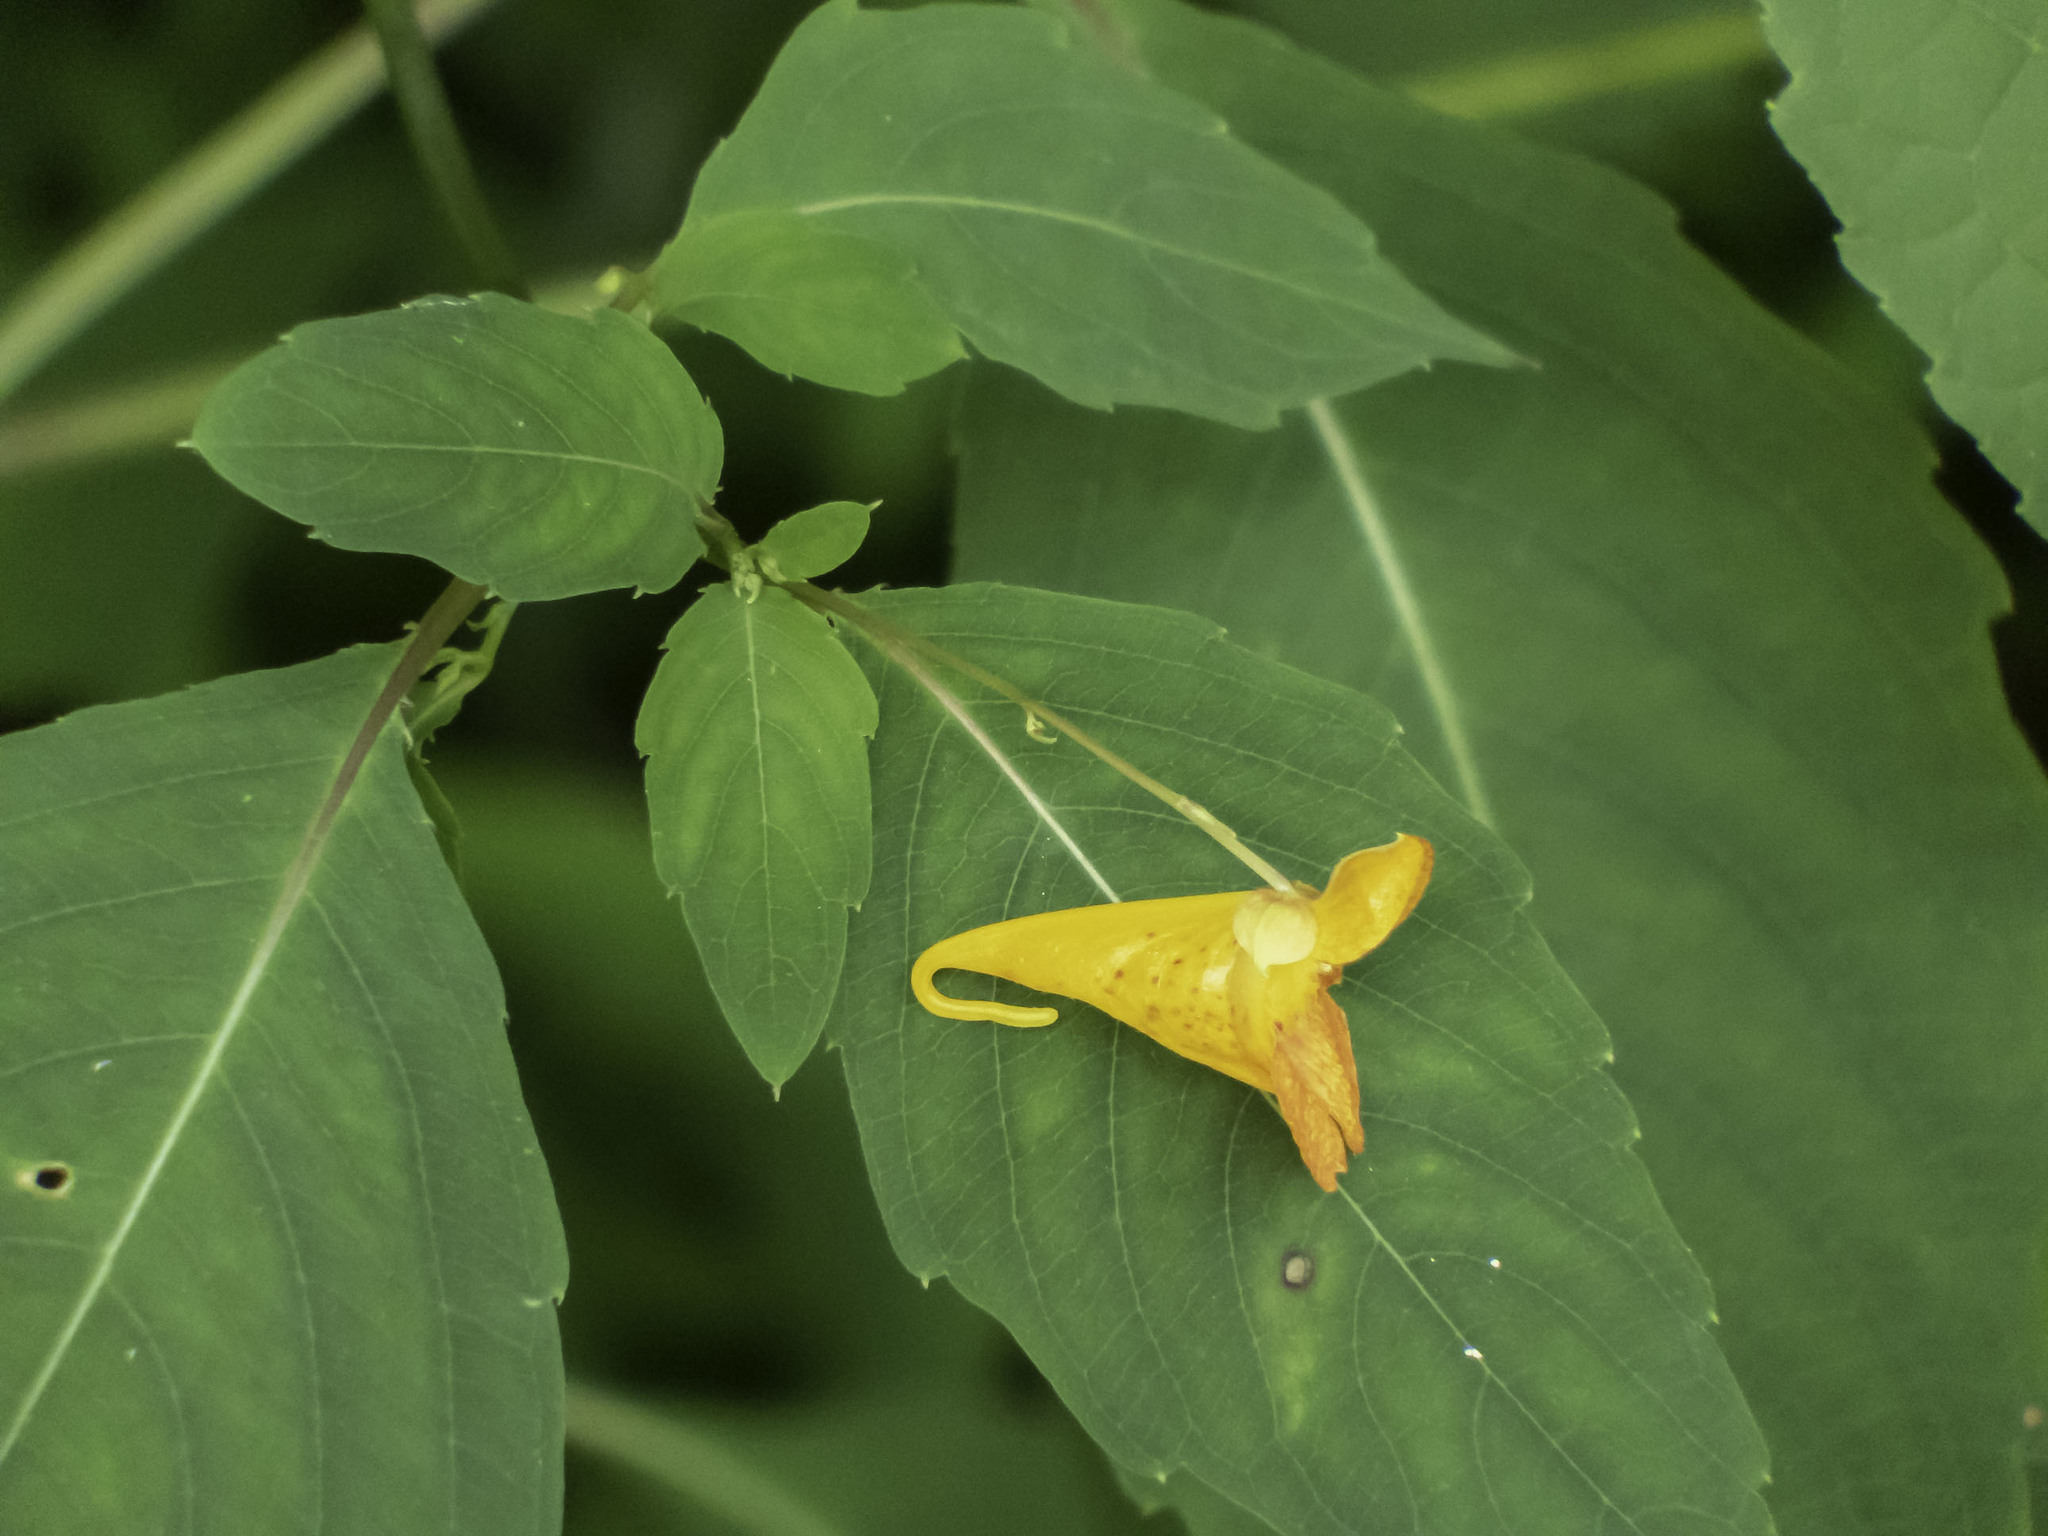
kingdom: Plantae
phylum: Tracheophyta
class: Magnoliopsida
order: Ericales
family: Balsaminaceae
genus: Impatiens
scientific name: Impatiens capensis
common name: Orange balsam
